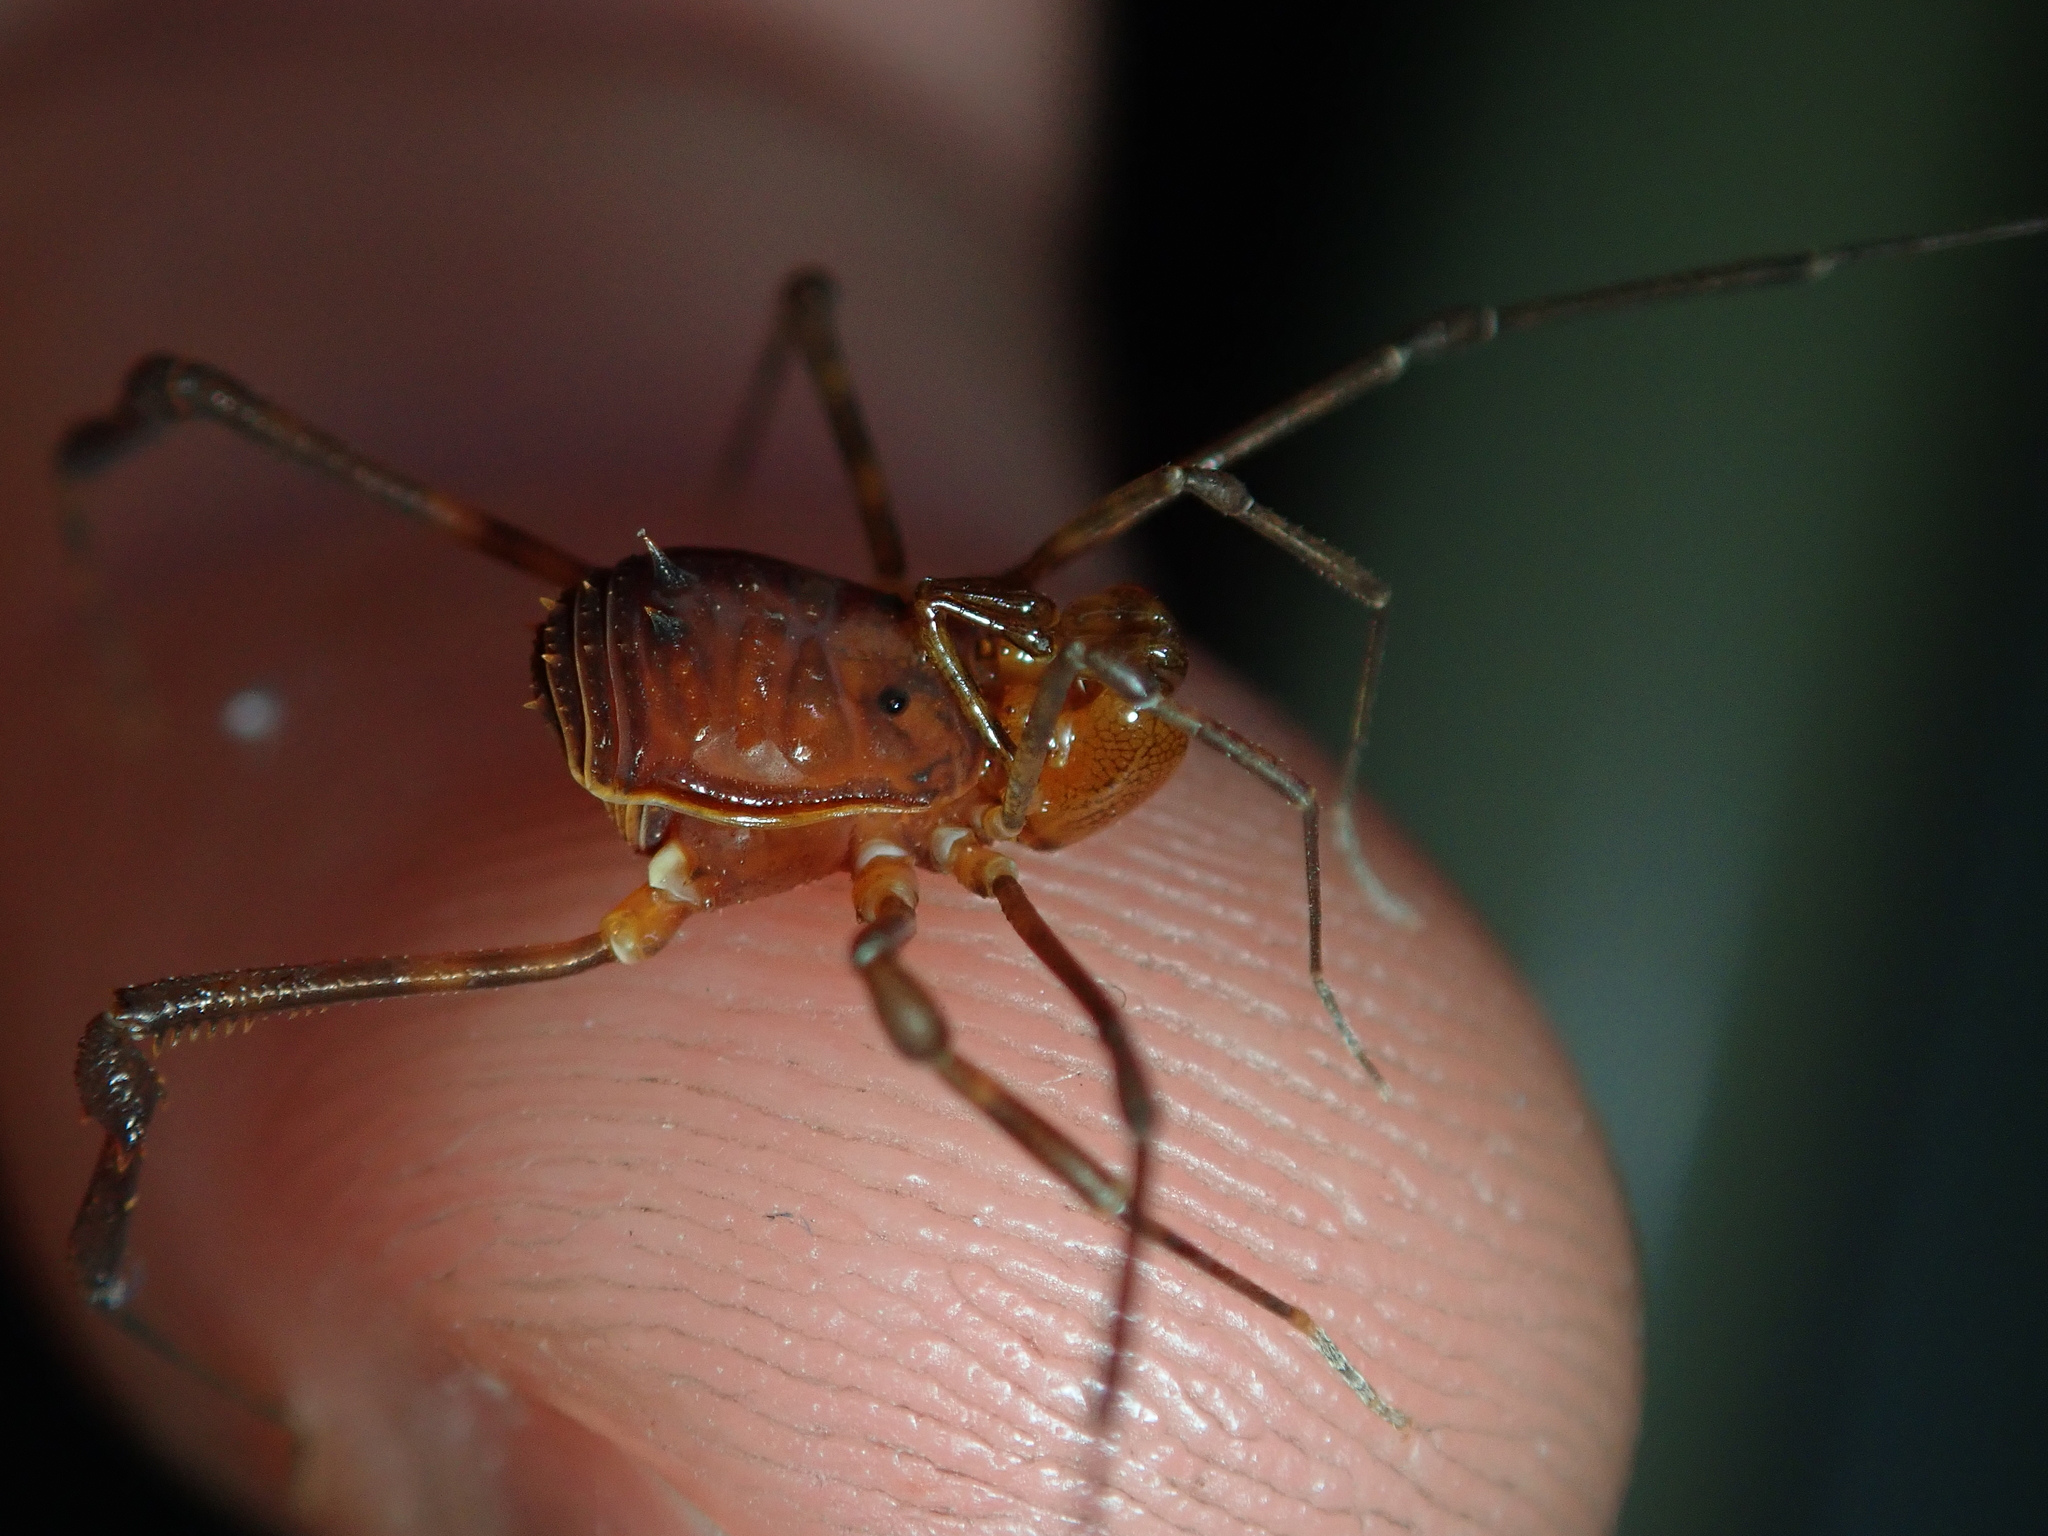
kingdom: Animalia
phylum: Arthropoda
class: Arachnida
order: Opiliones
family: Stygnidae
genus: Stygnus
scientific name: Stygnus luteus
